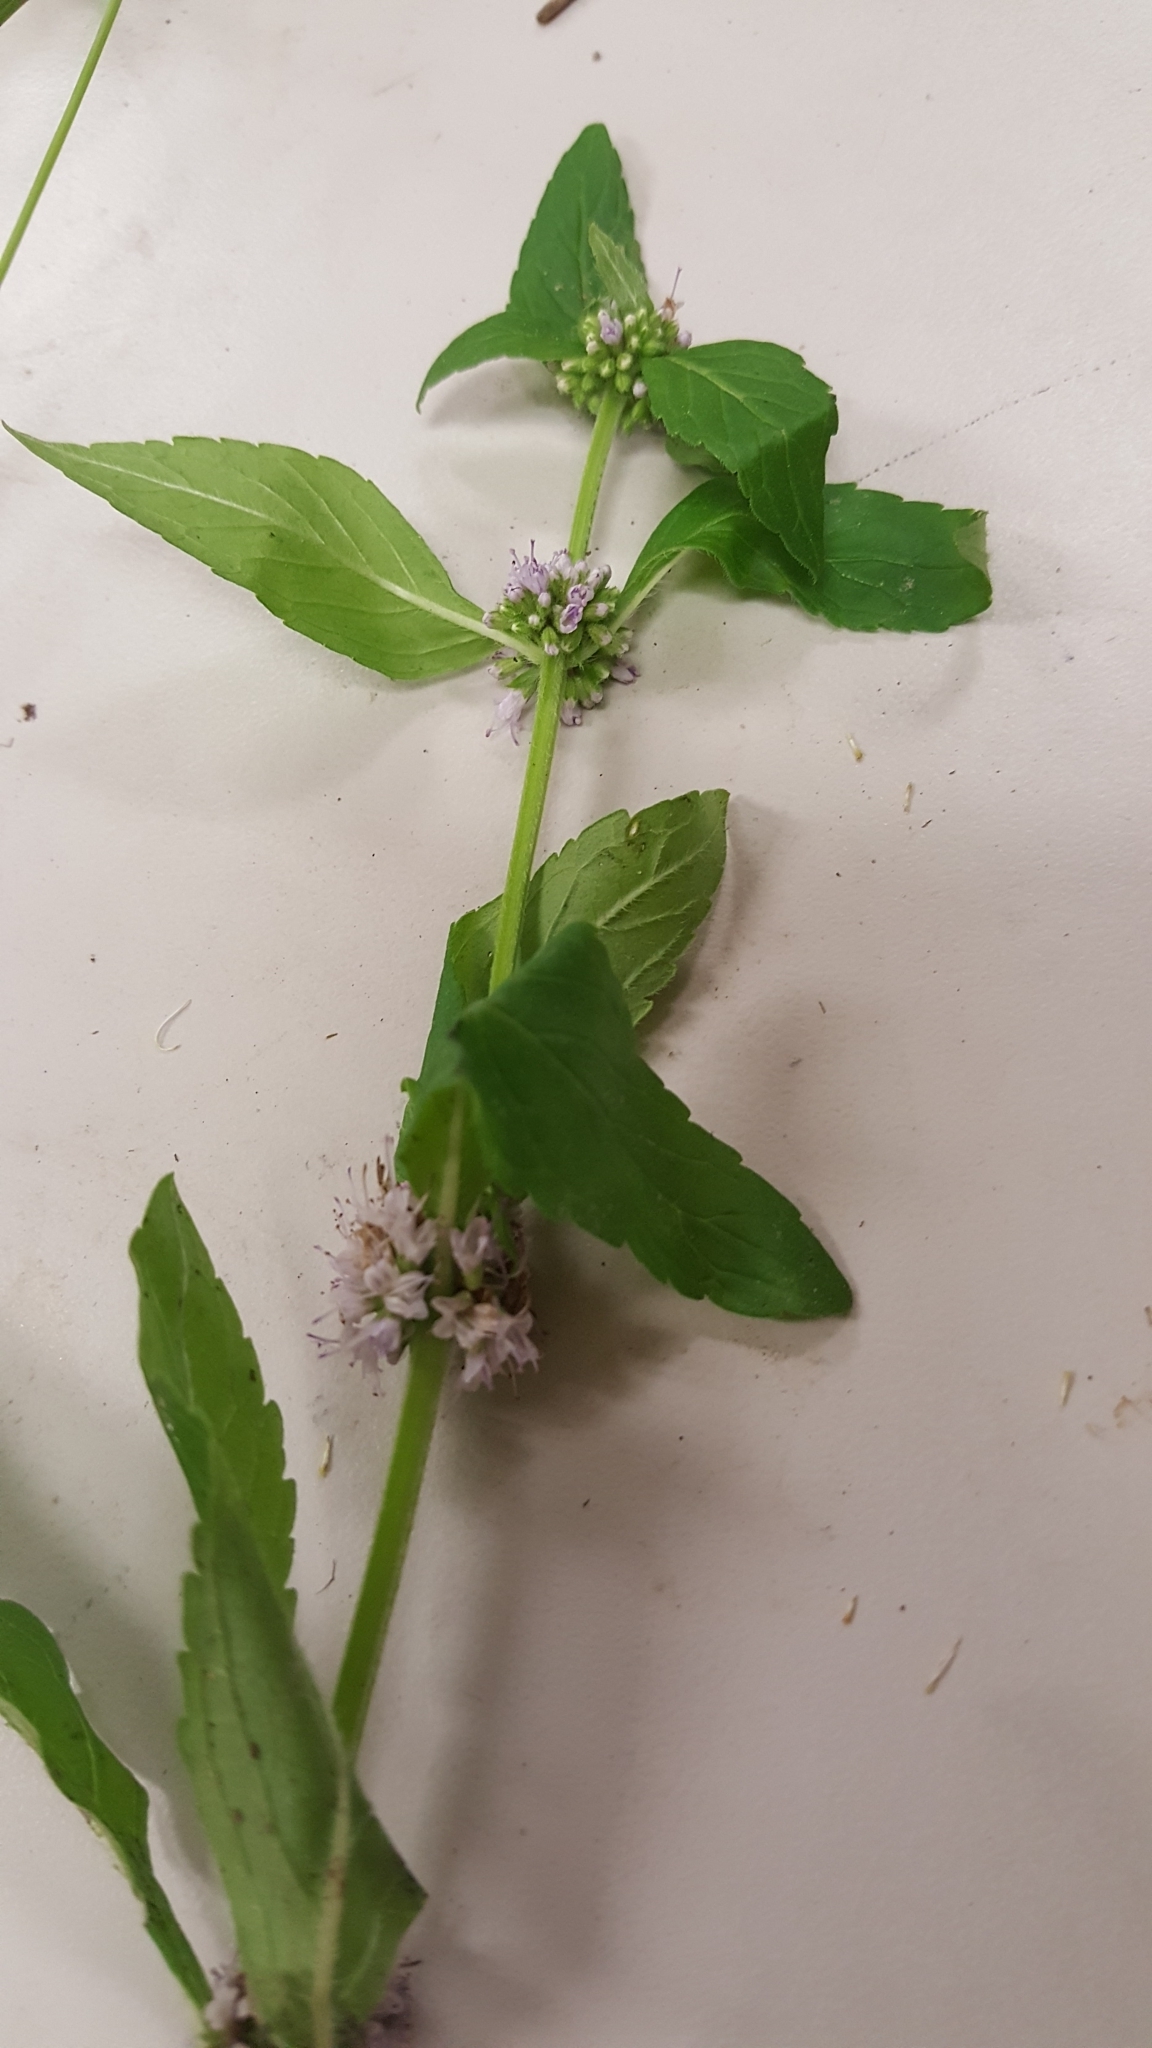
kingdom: Plantae
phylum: Tracheophyta
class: Magnoliopsida
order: Lamiales
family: Lamiaceae
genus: Mentha
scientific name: Mentha canadensis
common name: American corn mint
